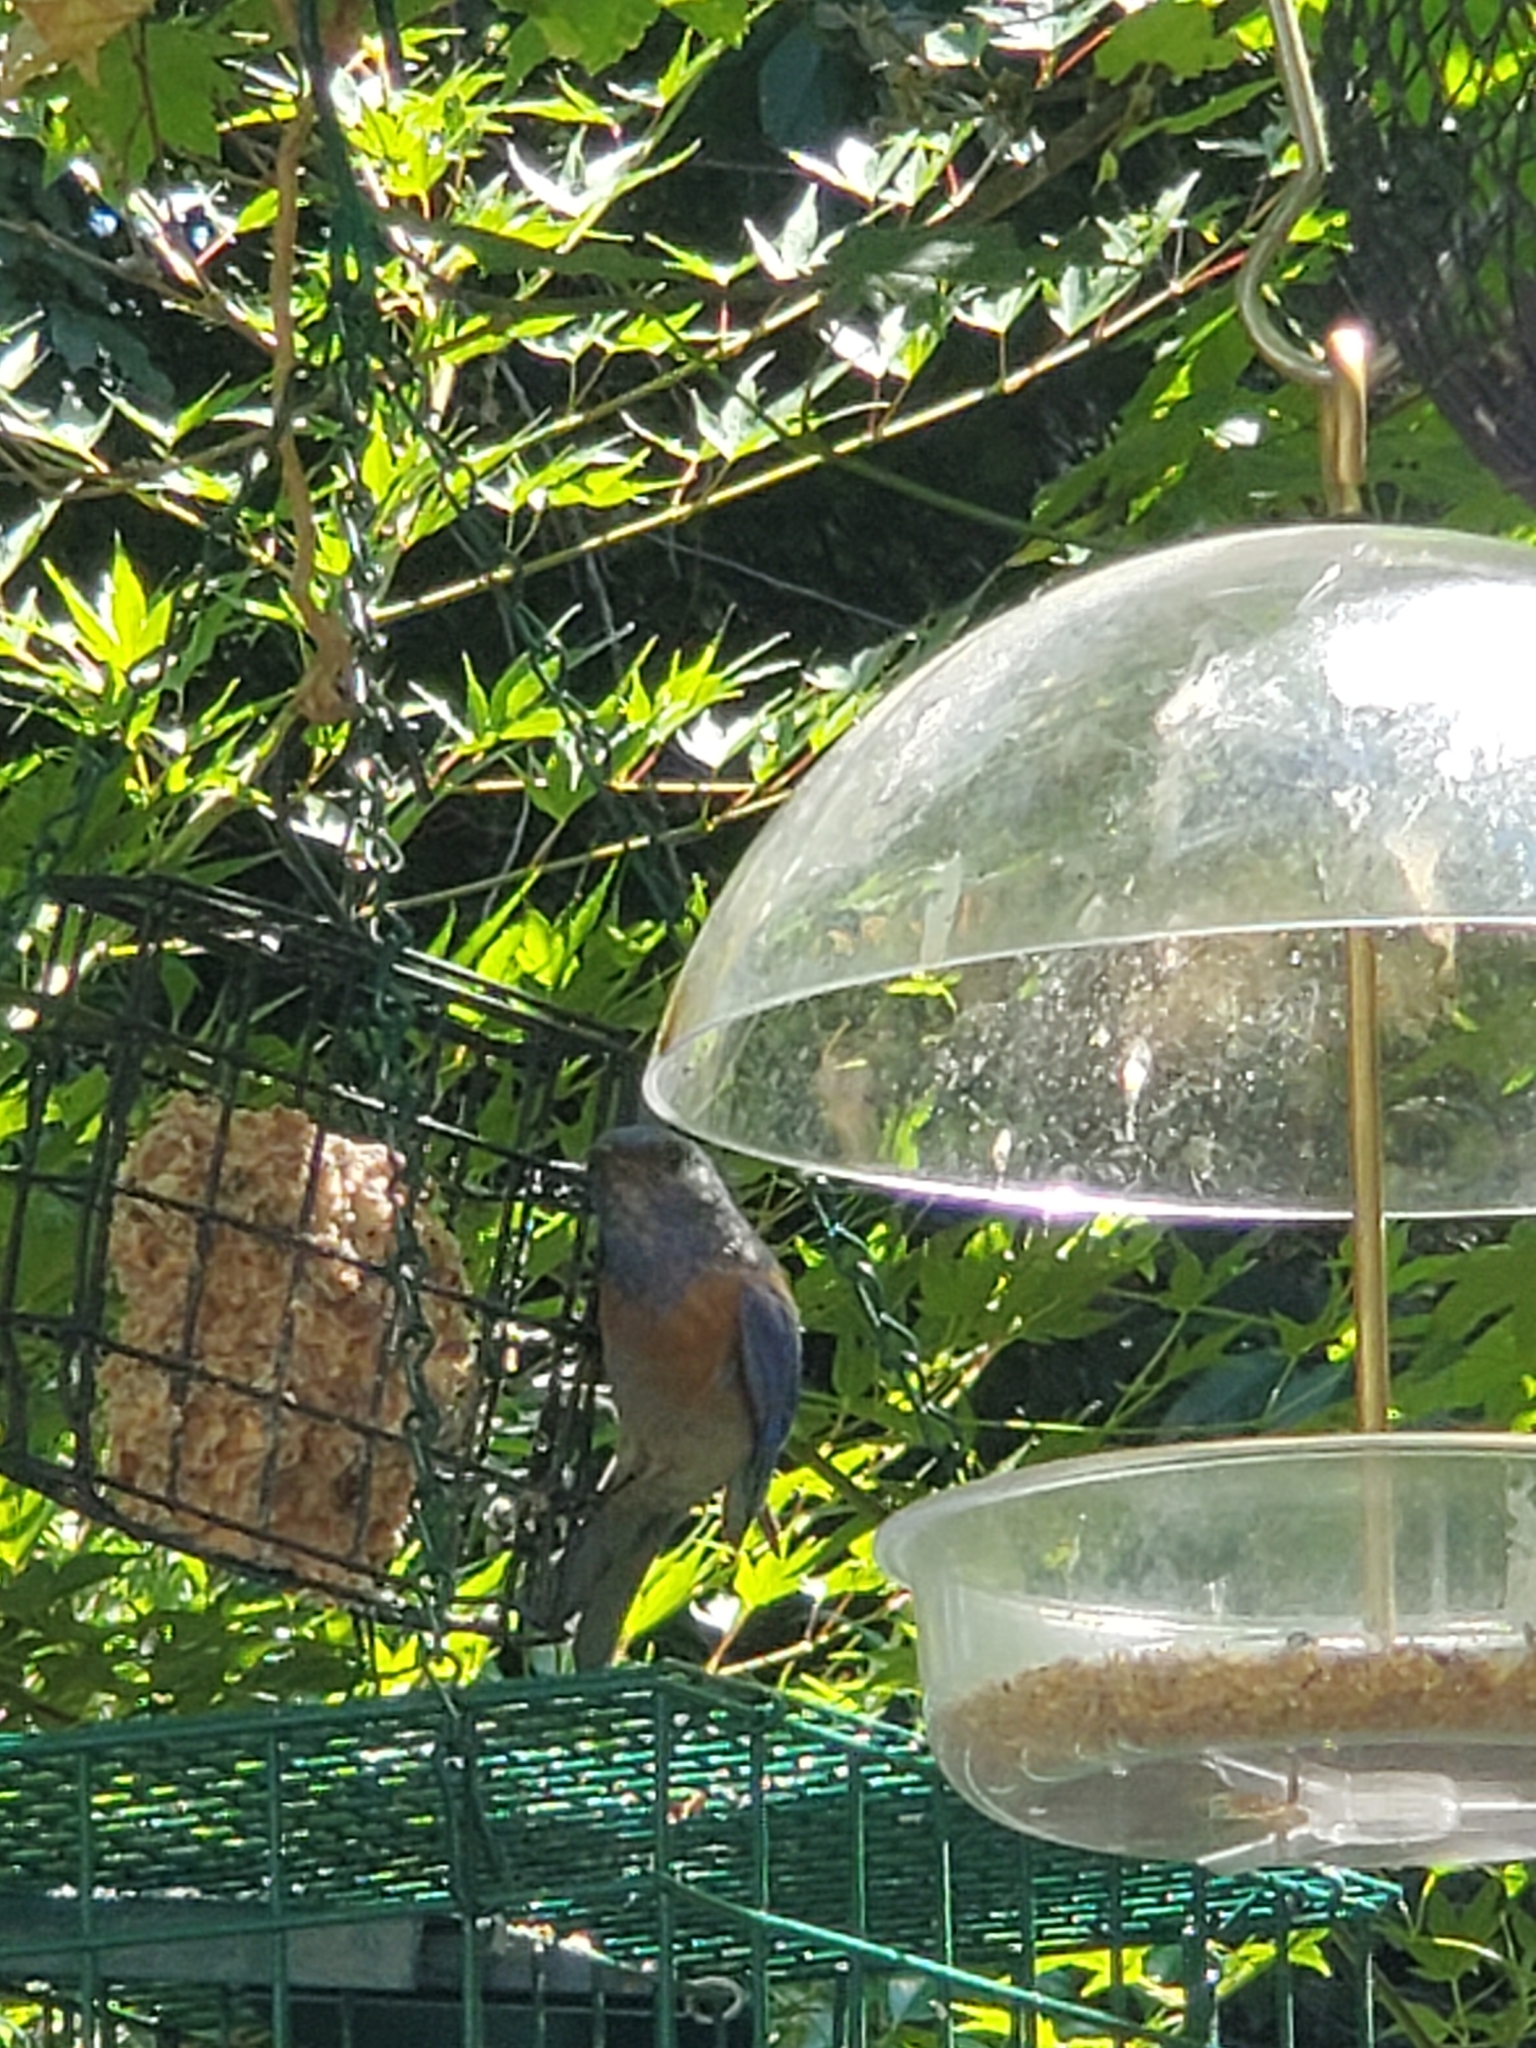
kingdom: Animalia
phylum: Chordata
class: Aves
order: Passeriformes
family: Turdidae
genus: Sialia
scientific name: Sialia mexicana
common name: Western bluebird
